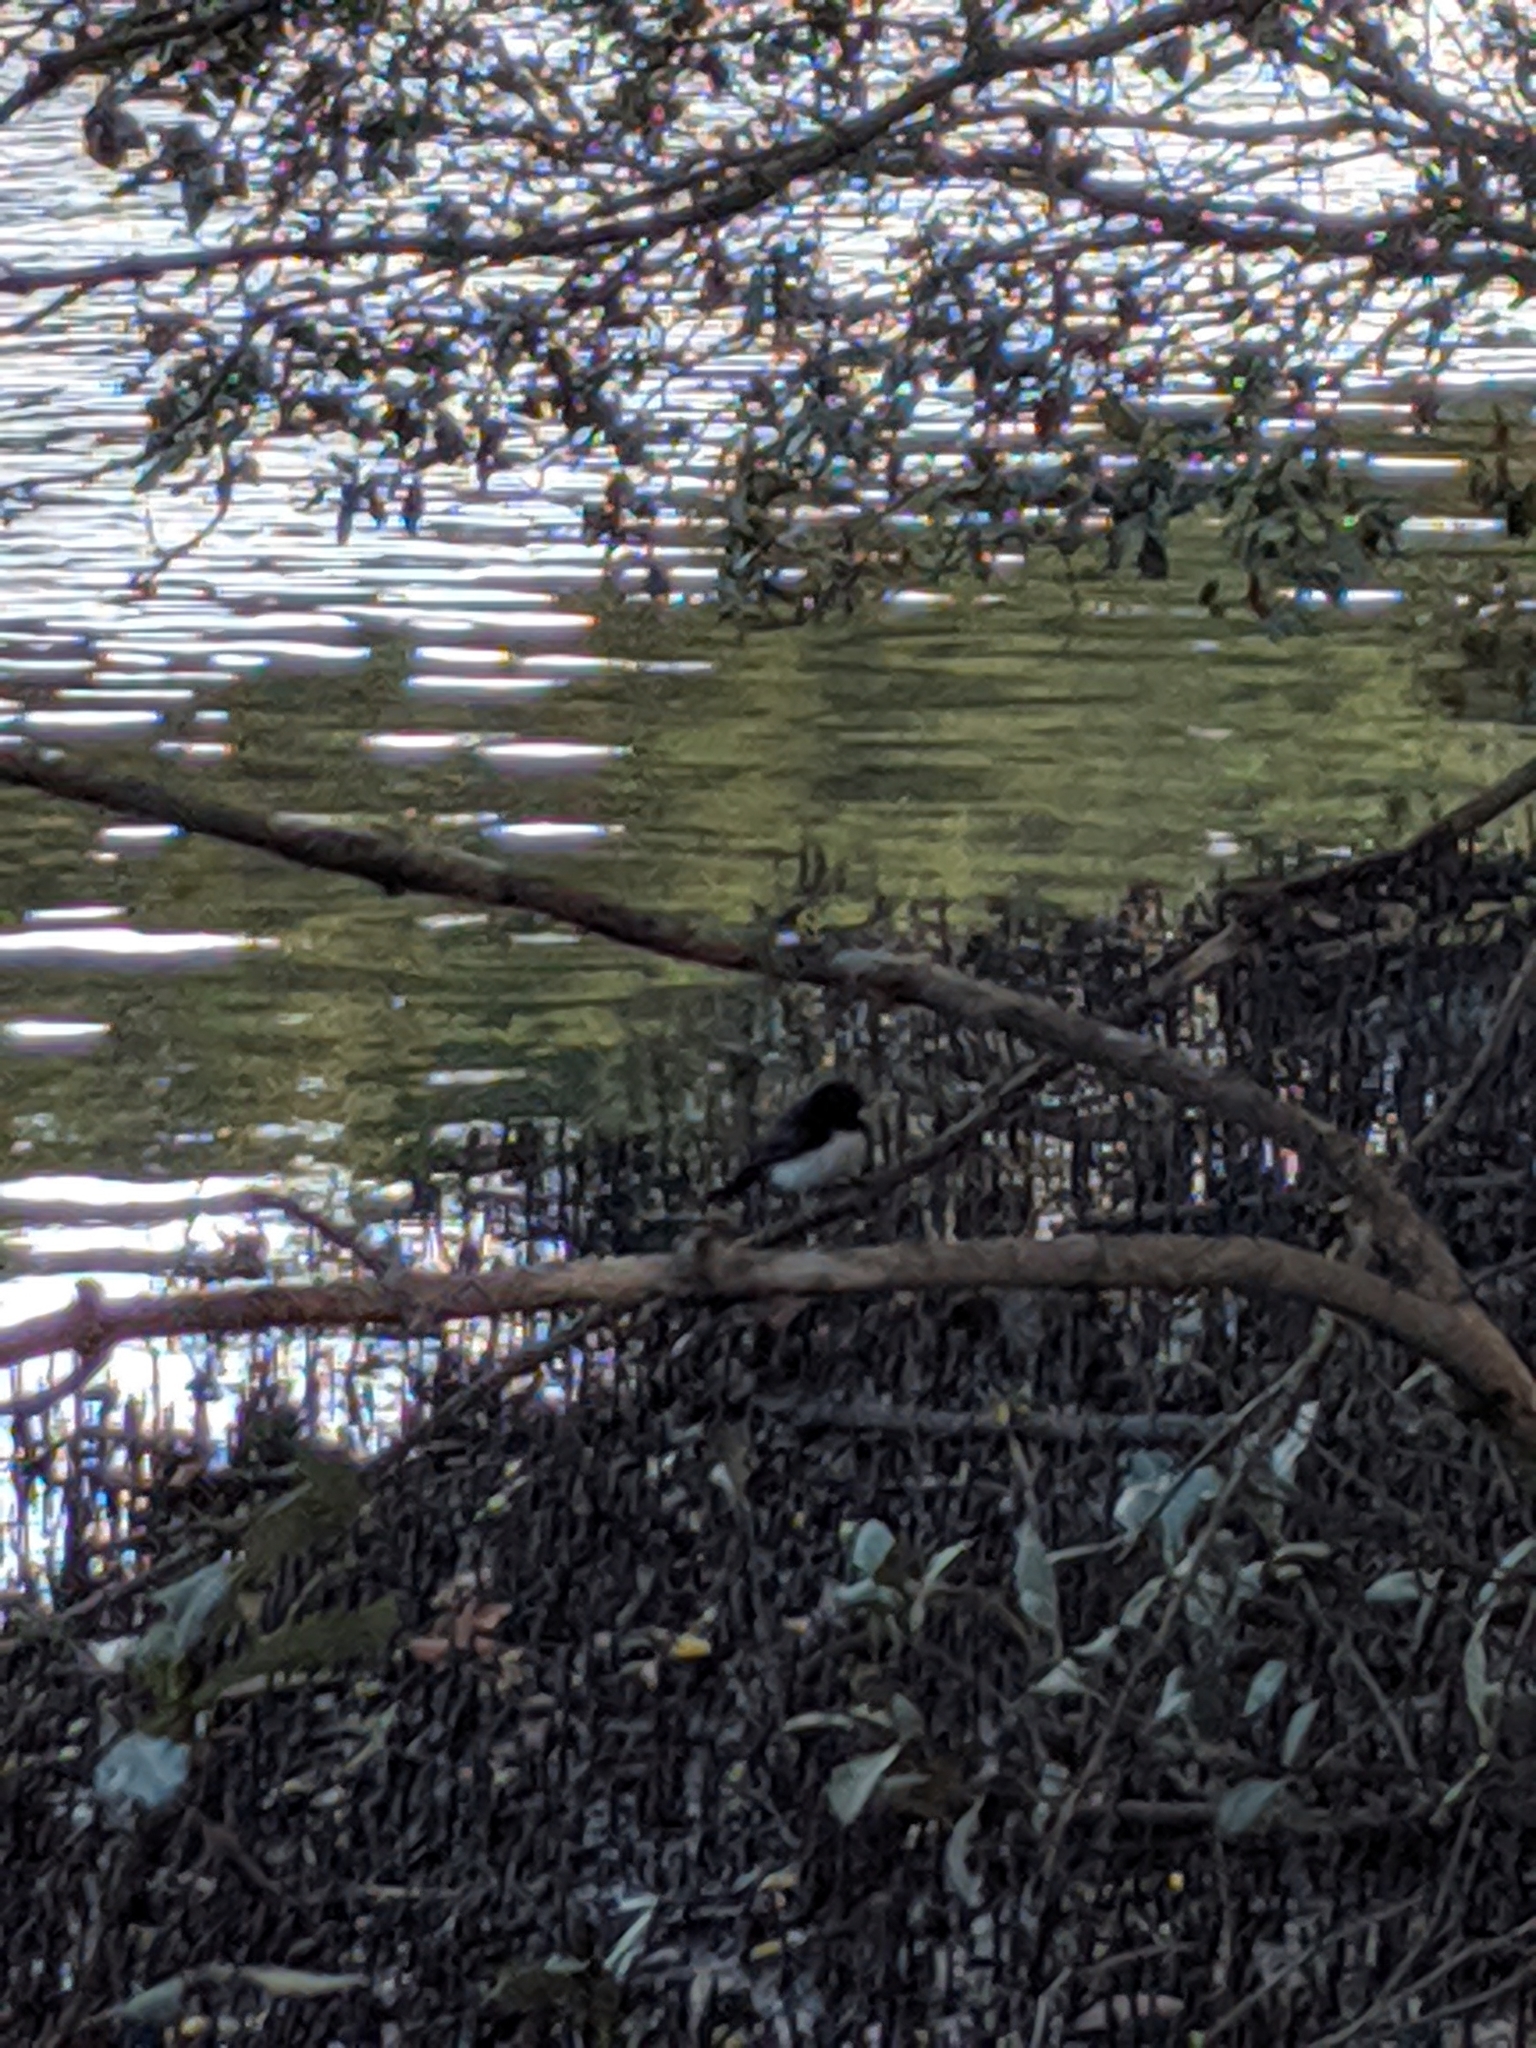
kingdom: Animalia
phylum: Chordata
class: Aves
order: Passeriformes
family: Rhipiduridae
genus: Rhipidura
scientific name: Rhipidura leucophrys
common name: Willie wagtail
